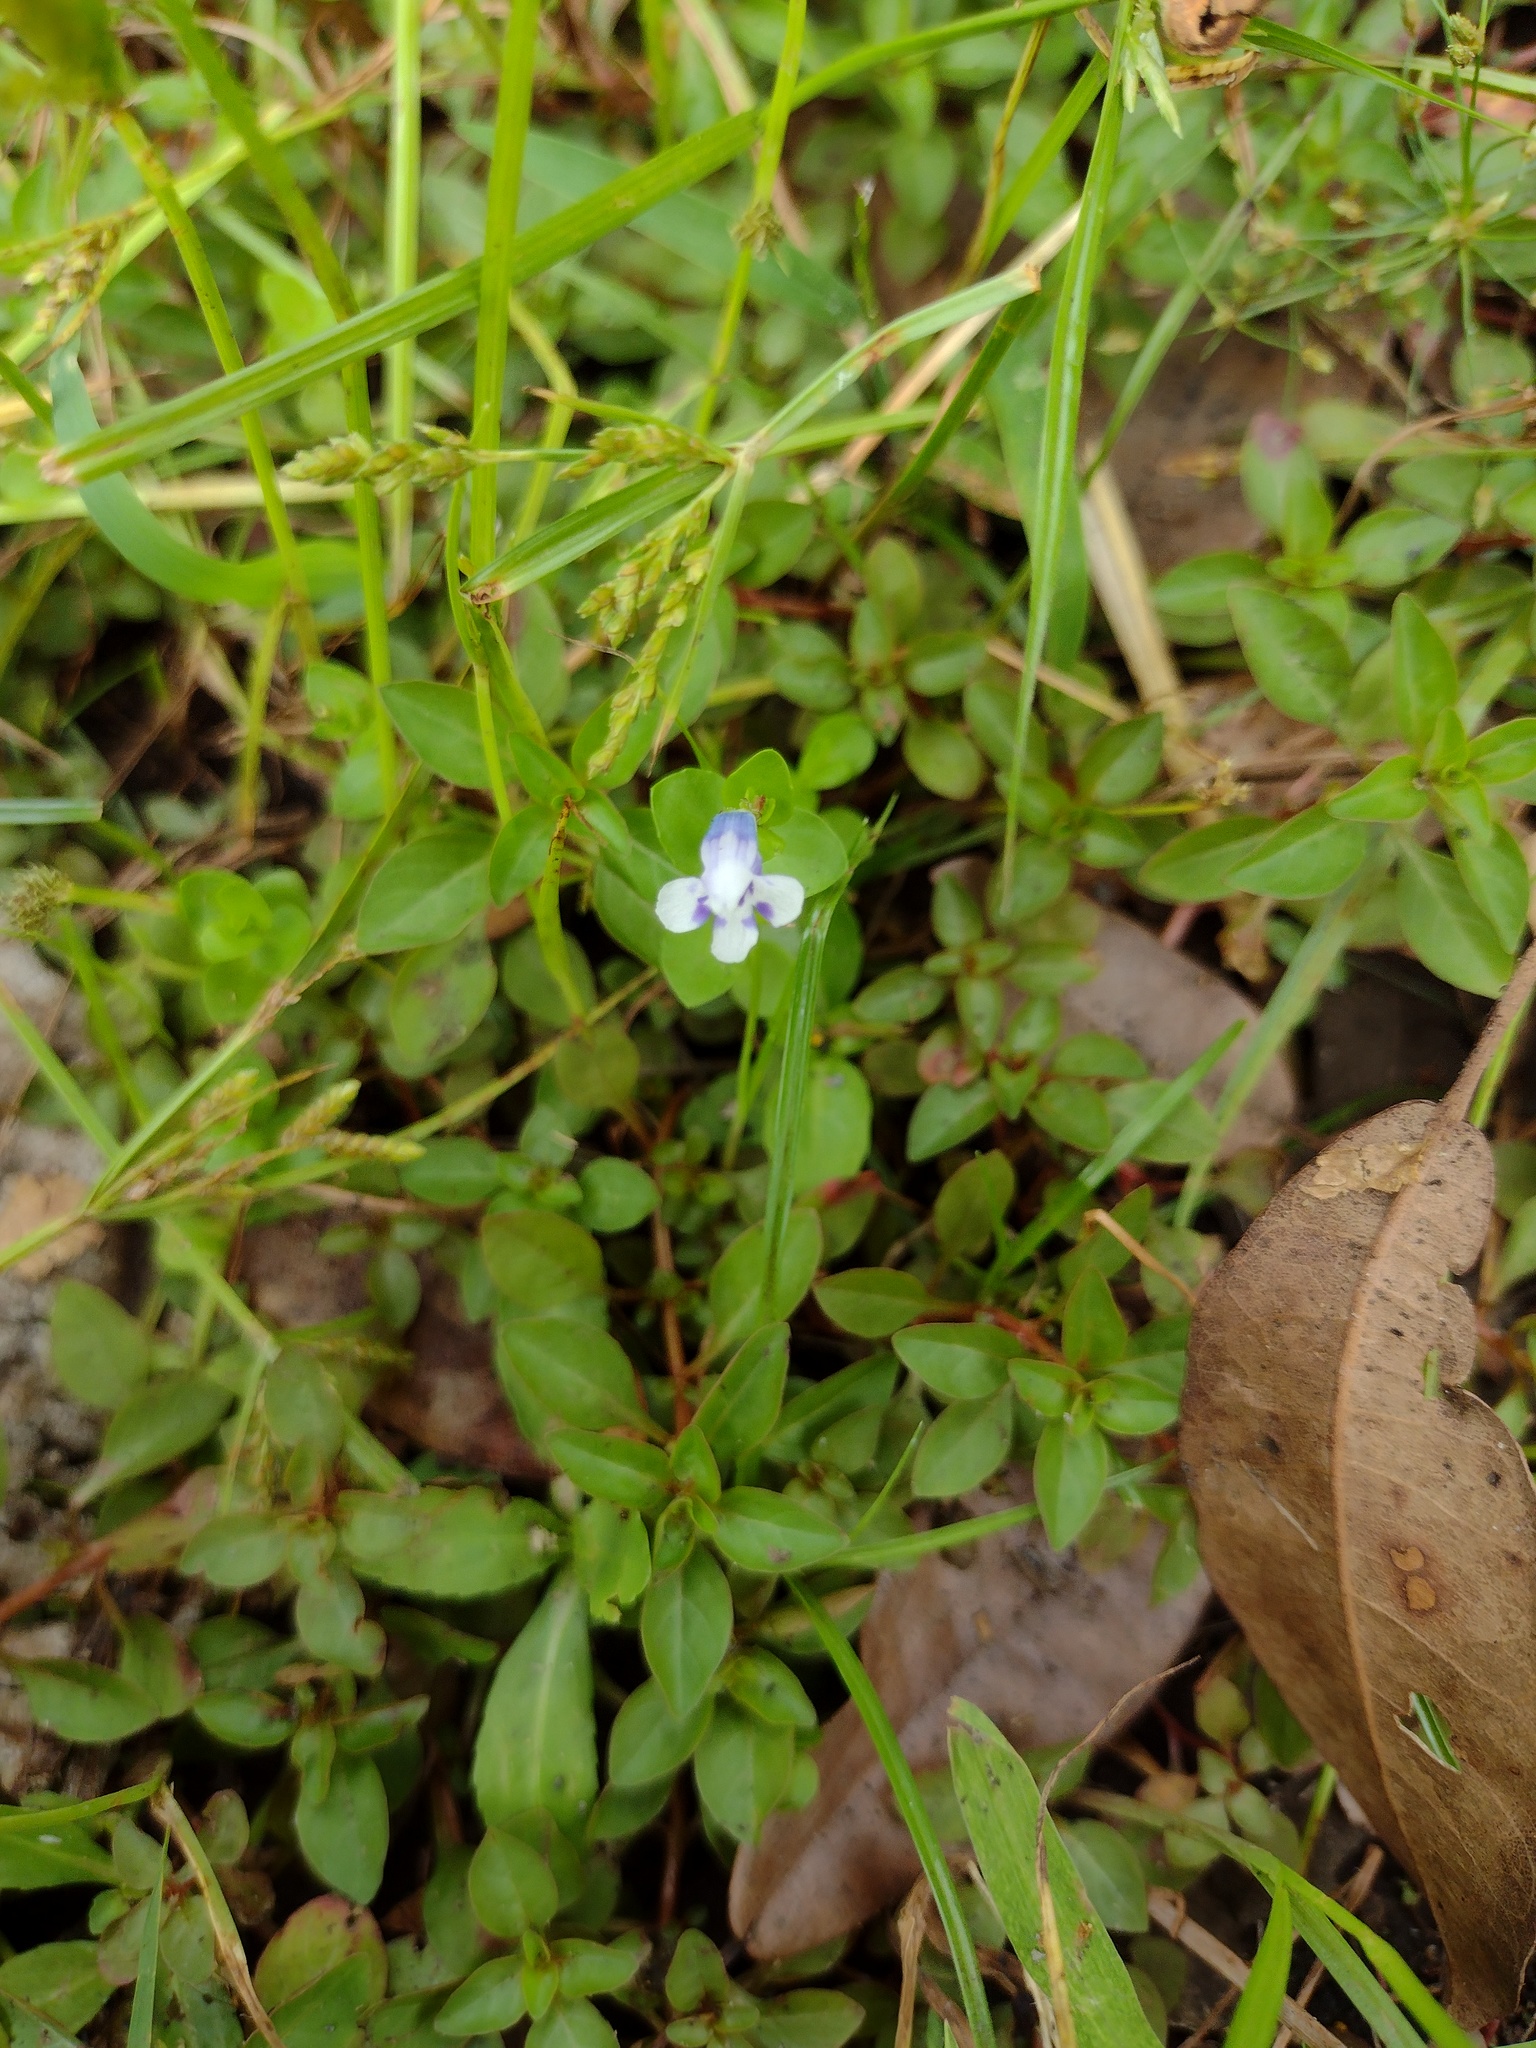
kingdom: Plantae
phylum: Tracheophyta
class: Magnoliopsida
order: Lamiales
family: Linderniaceae
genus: Lindernia
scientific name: Lindernia rotundifolia
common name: Baby’s tears
